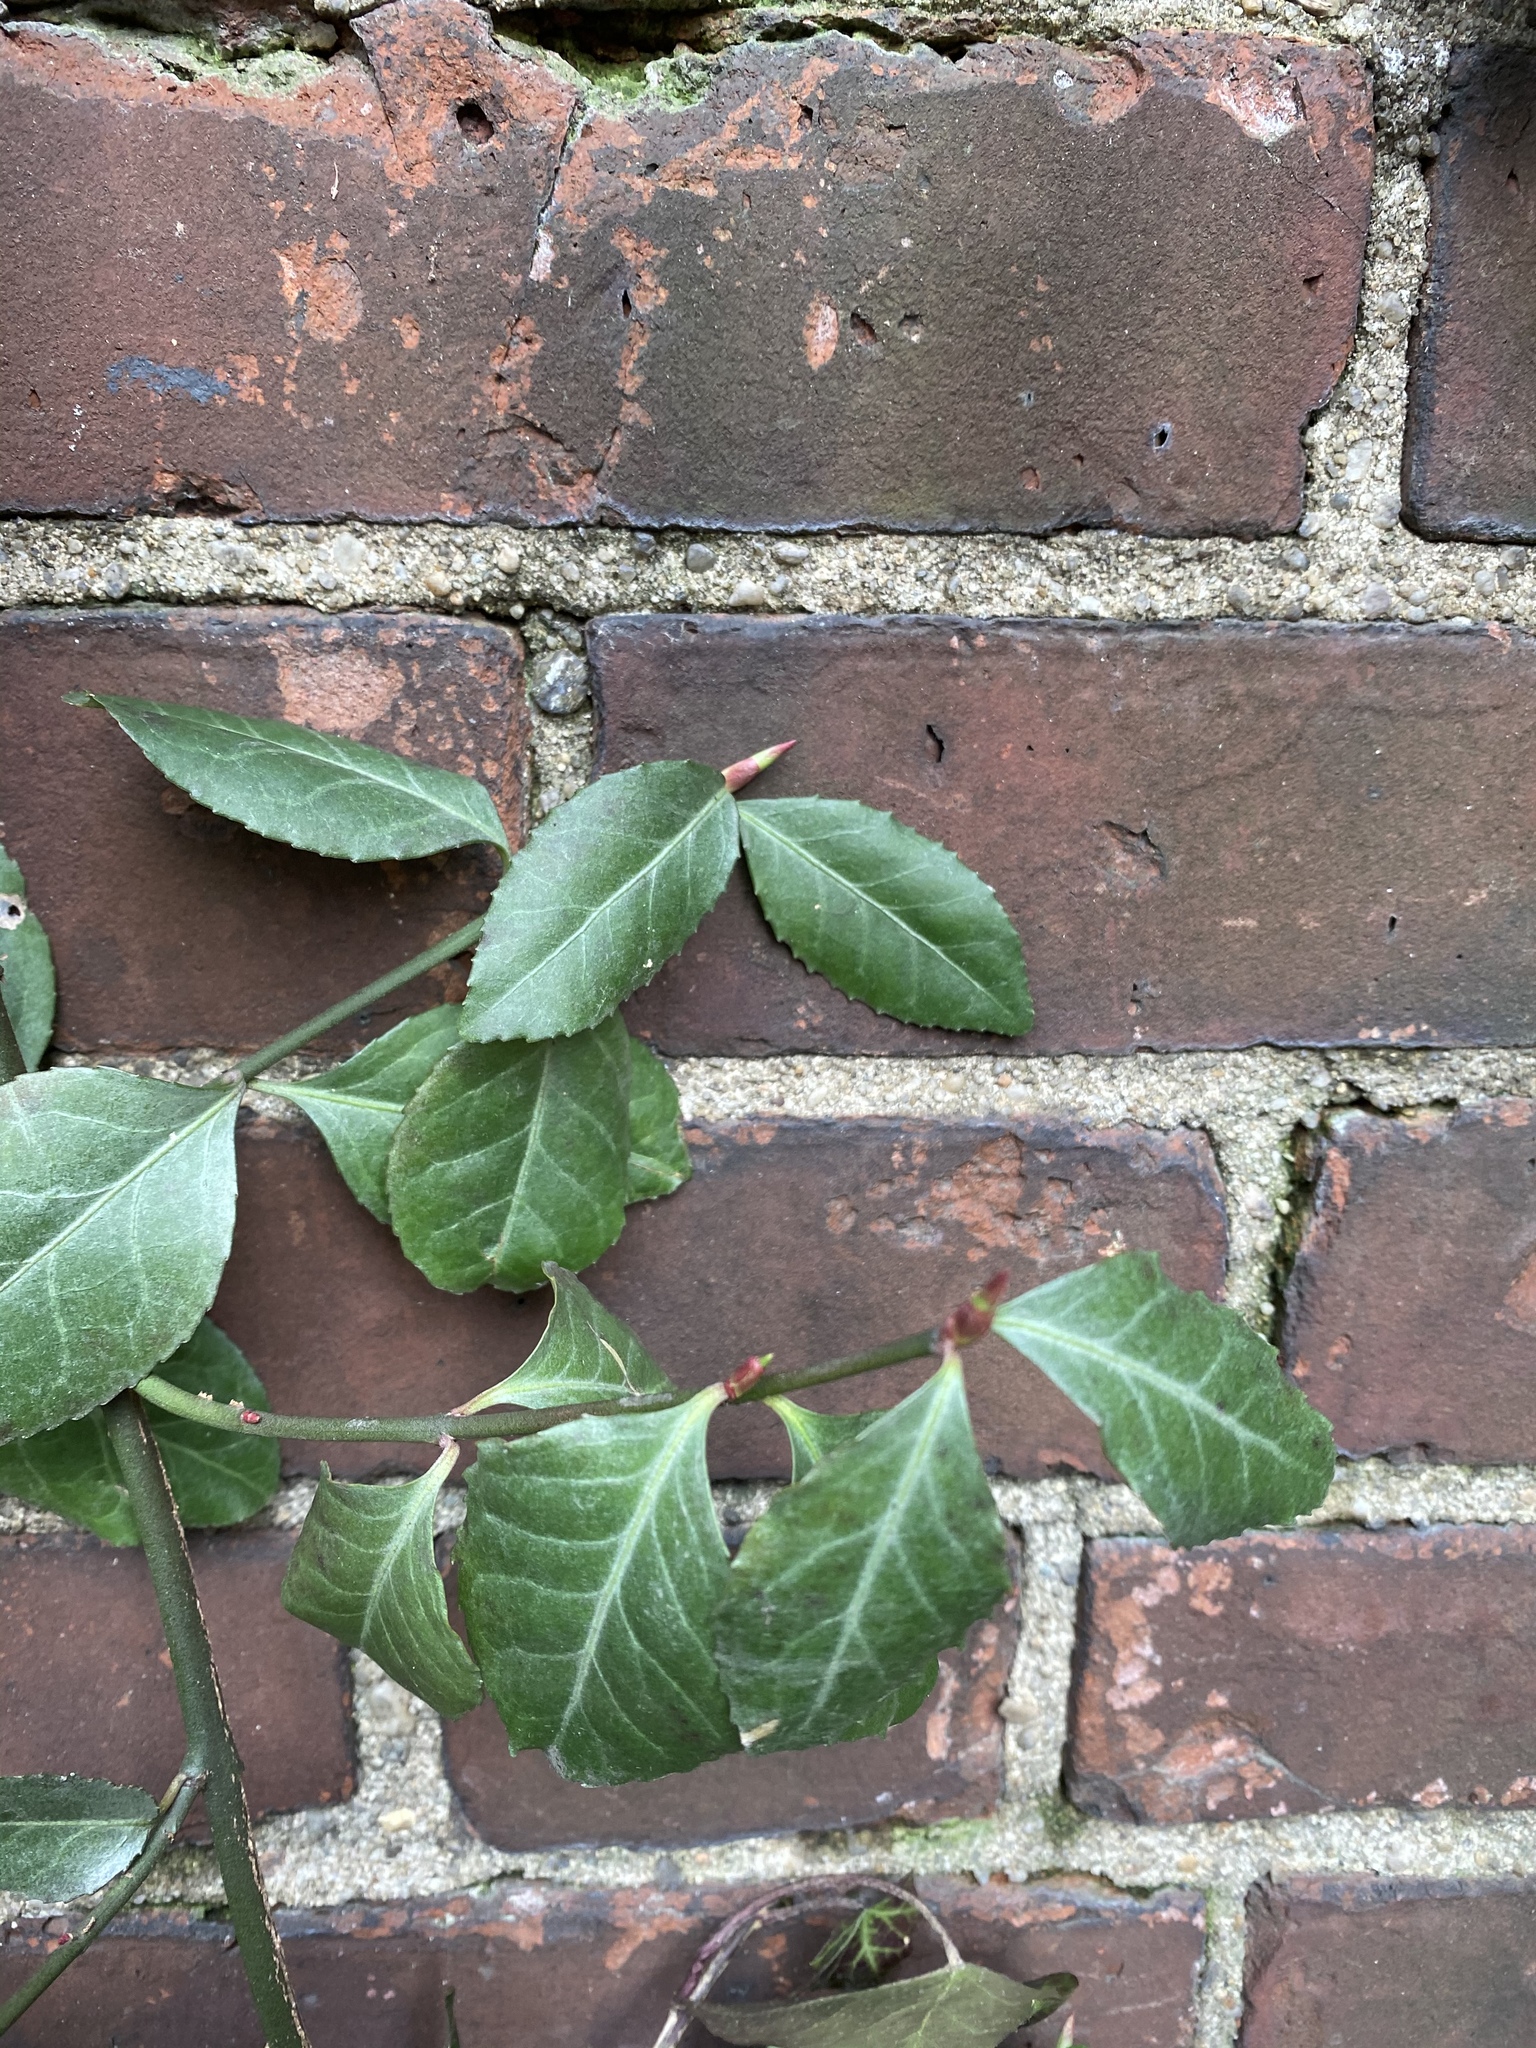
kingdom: Plantae
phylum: Tracheophyta
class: Magnoliopsida
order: Celastrales
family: Celastraceae
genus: Euonymus
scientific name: Euonymus fortunei
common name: Climbing euonymus
